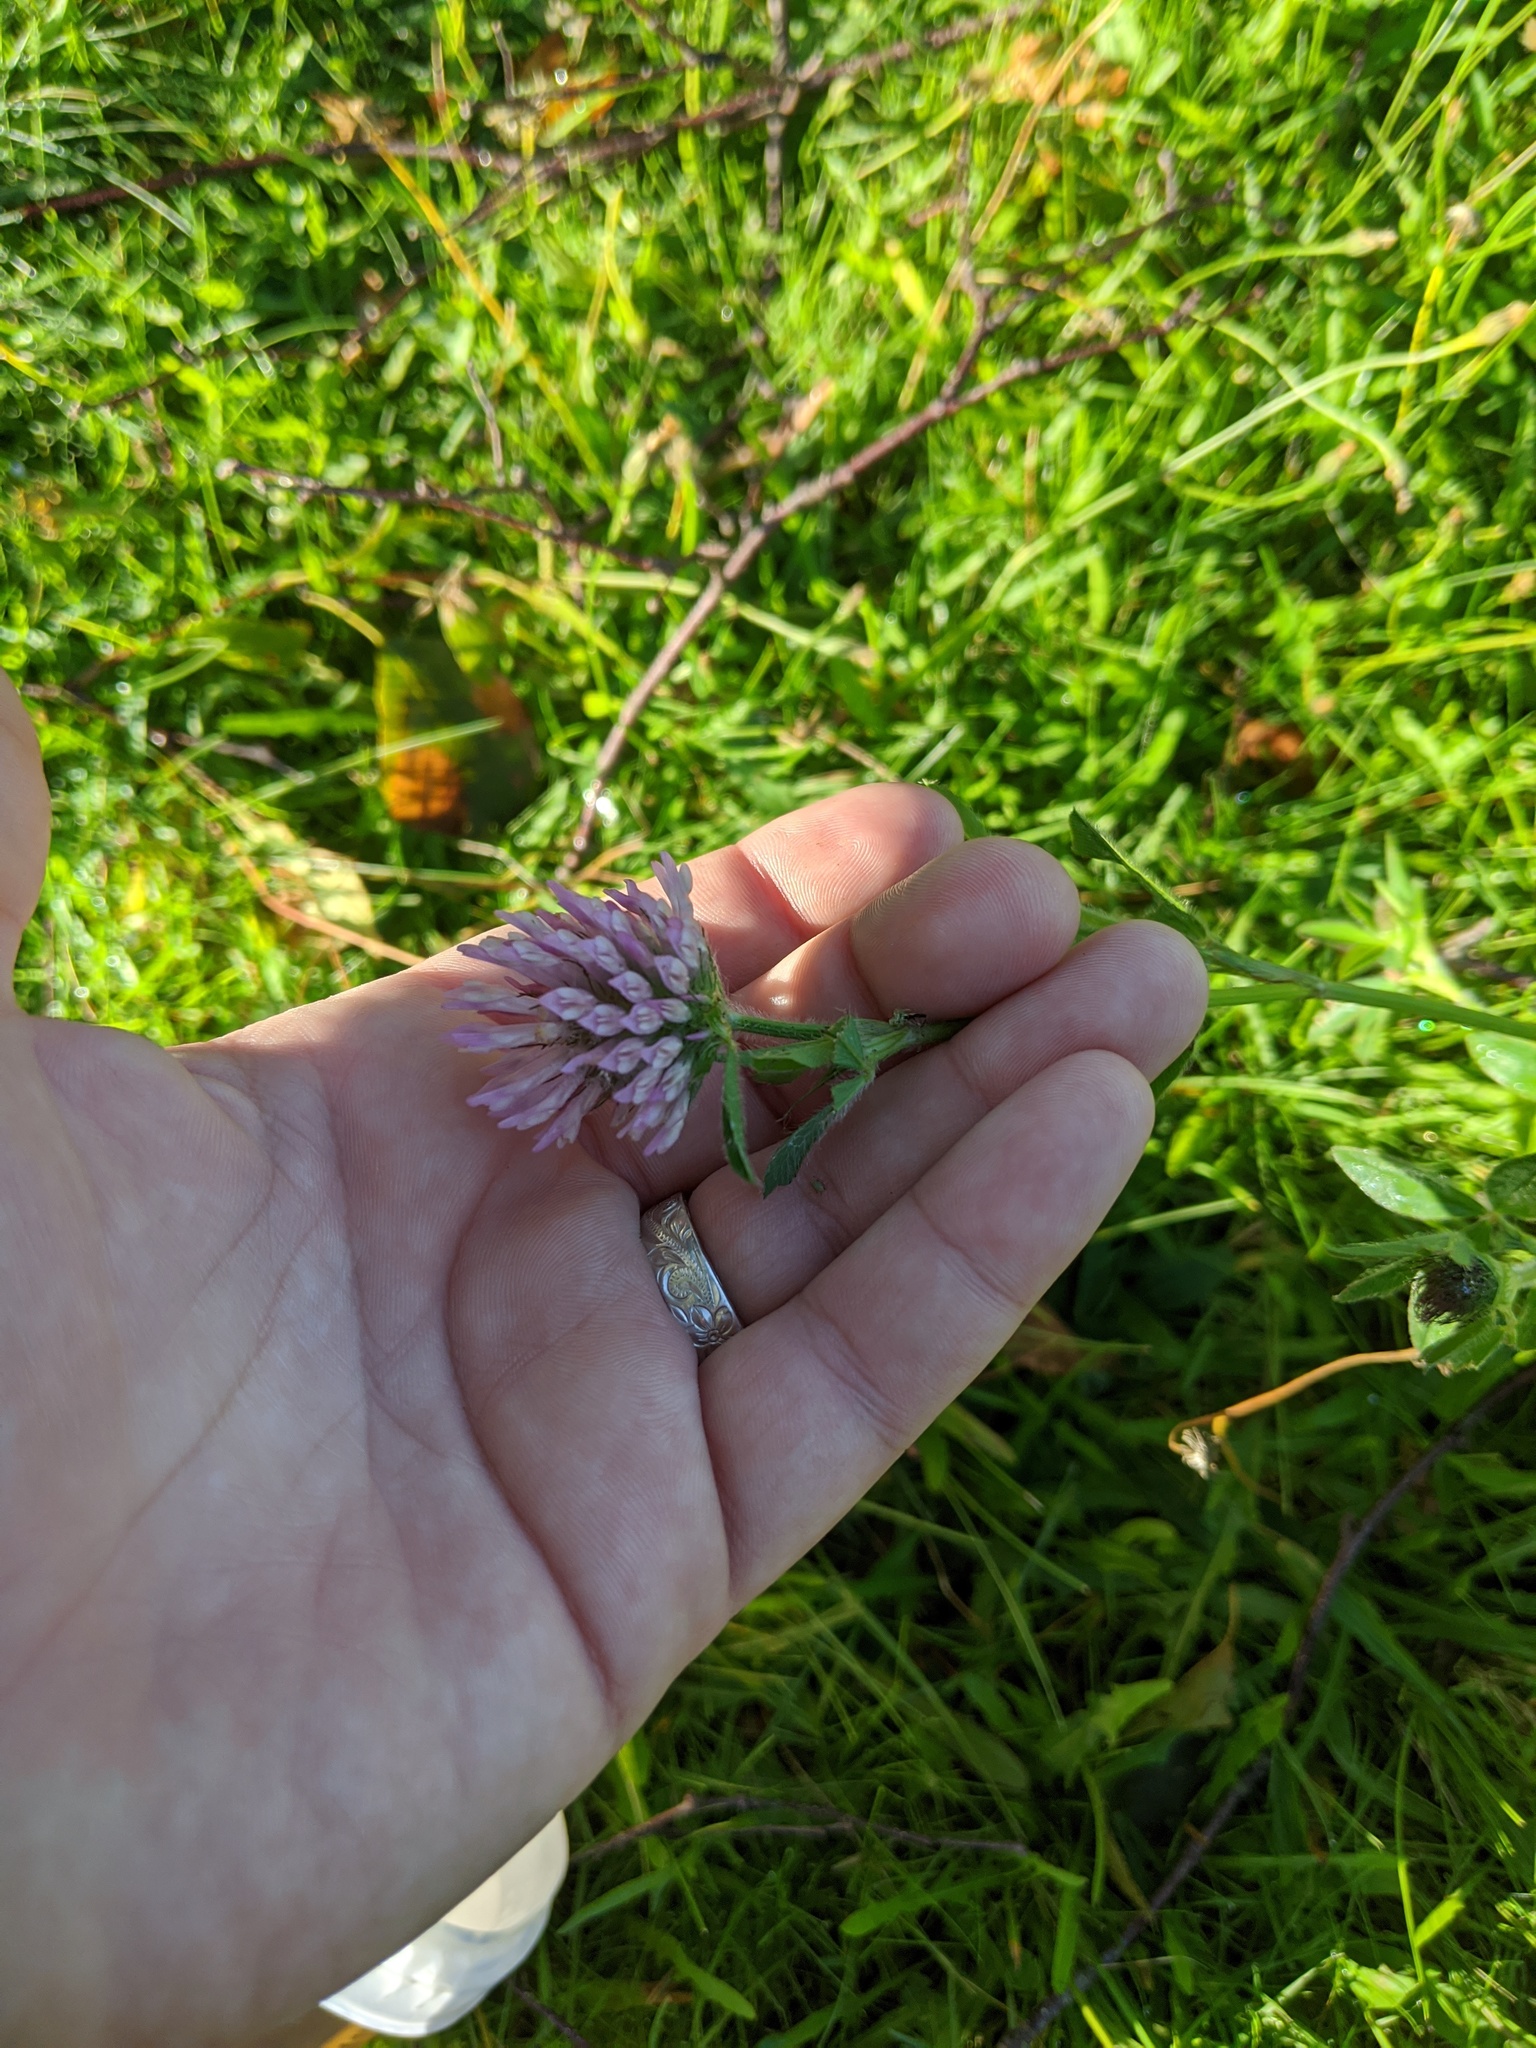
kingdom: Plantae
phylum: Tracheophyta
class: Magnoliopsida
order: Fabales
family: Fabaceae
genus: Trifolium
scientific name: Trifolium pratense
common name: Red clover
